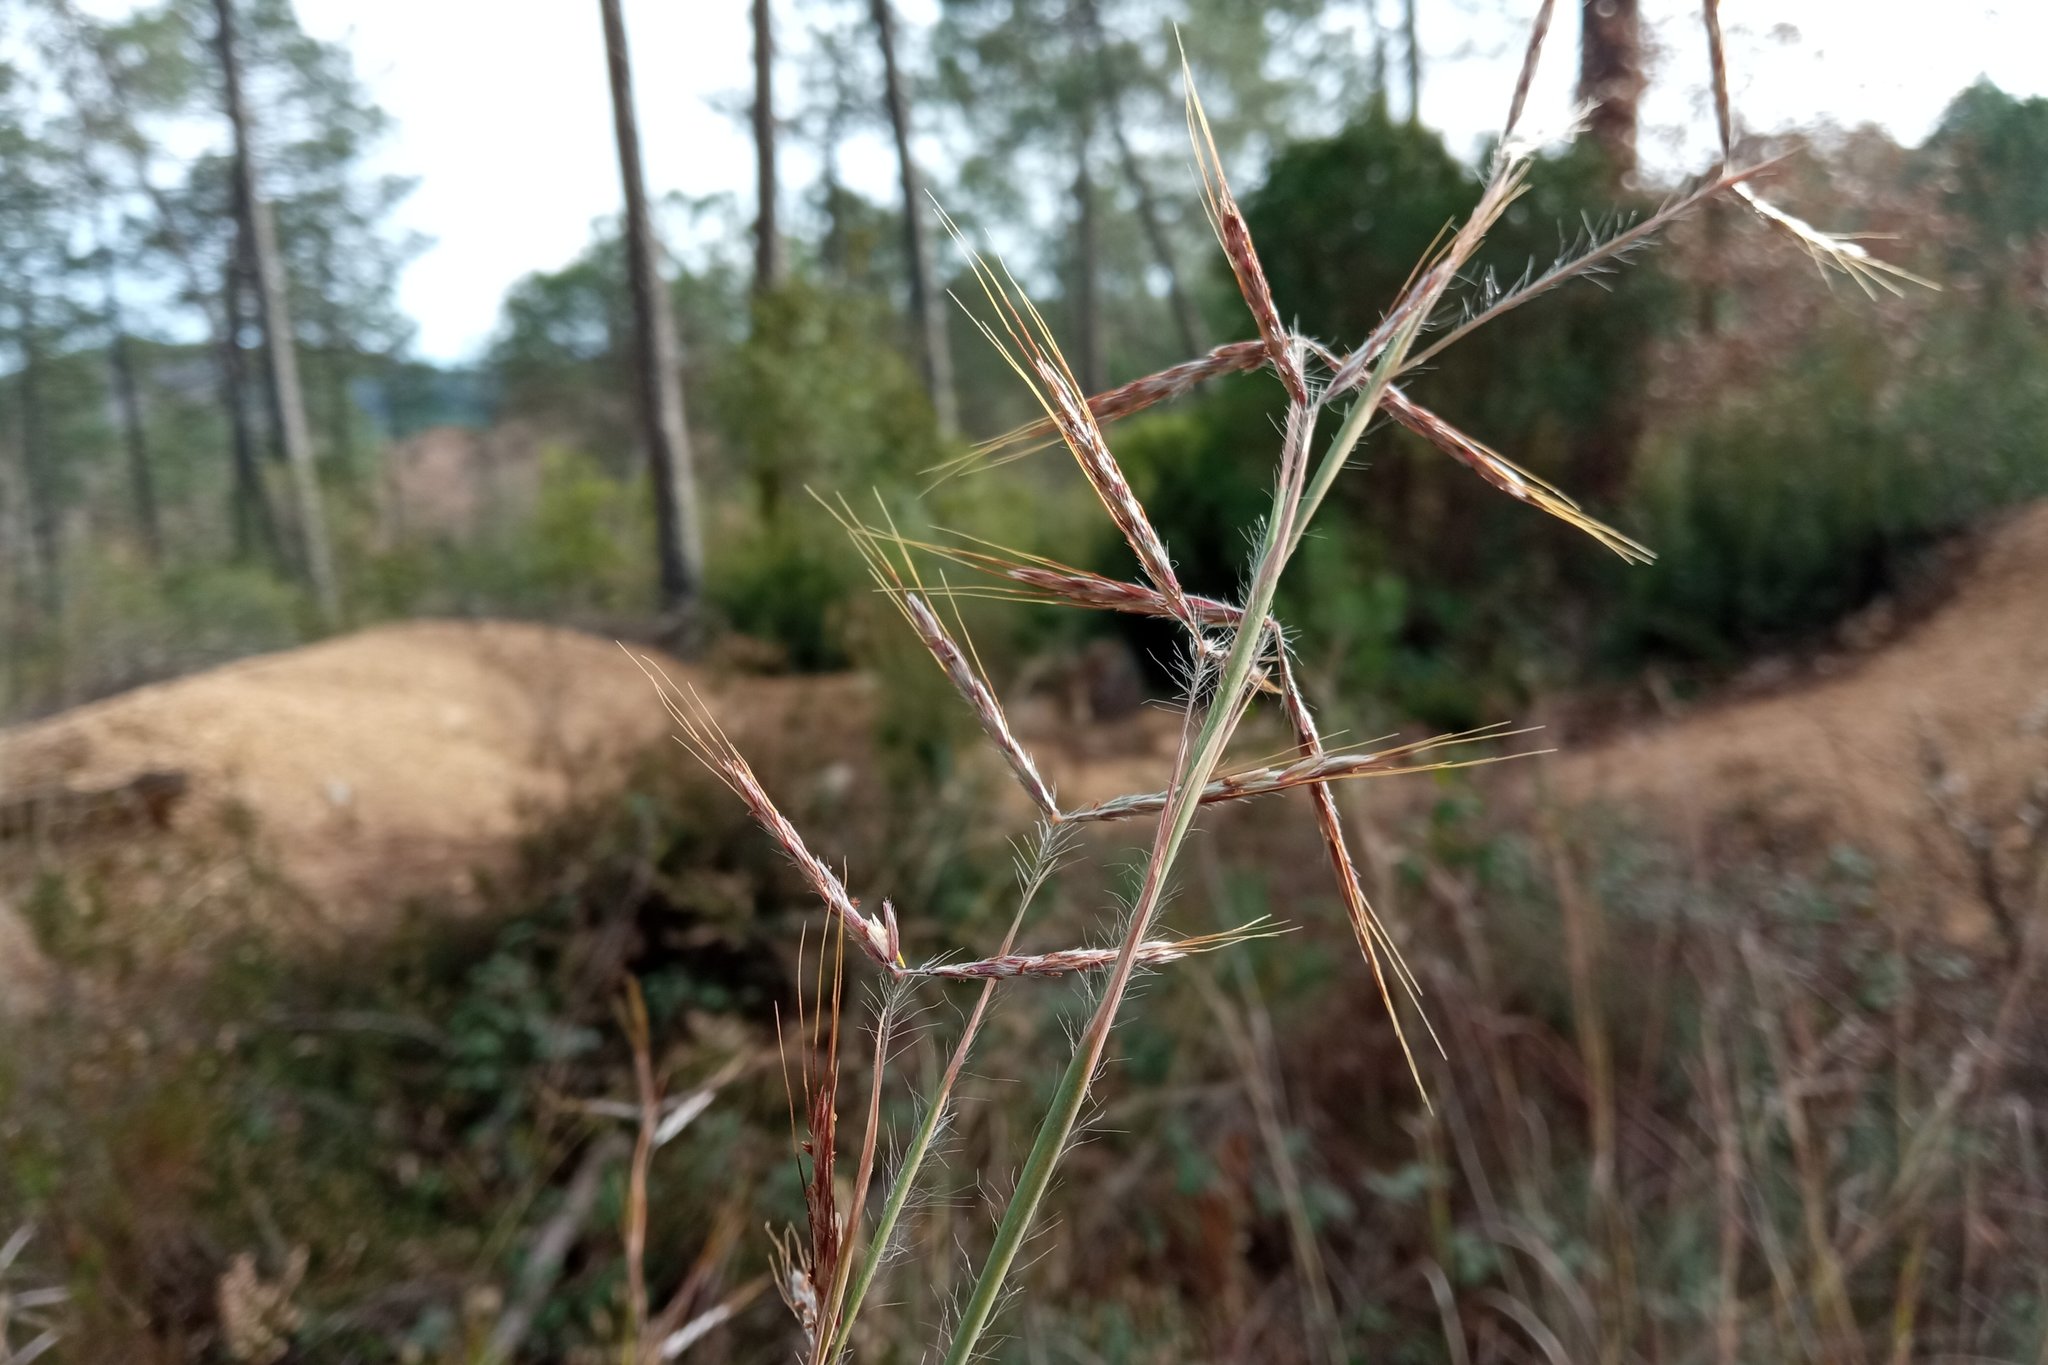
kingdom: Plantae
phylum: Tracheophyta
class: Liliopsida
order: Poales
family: Poaceae
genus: Hyparrhenia
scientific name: Hyparrhenia hirta
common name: Thatching grass
